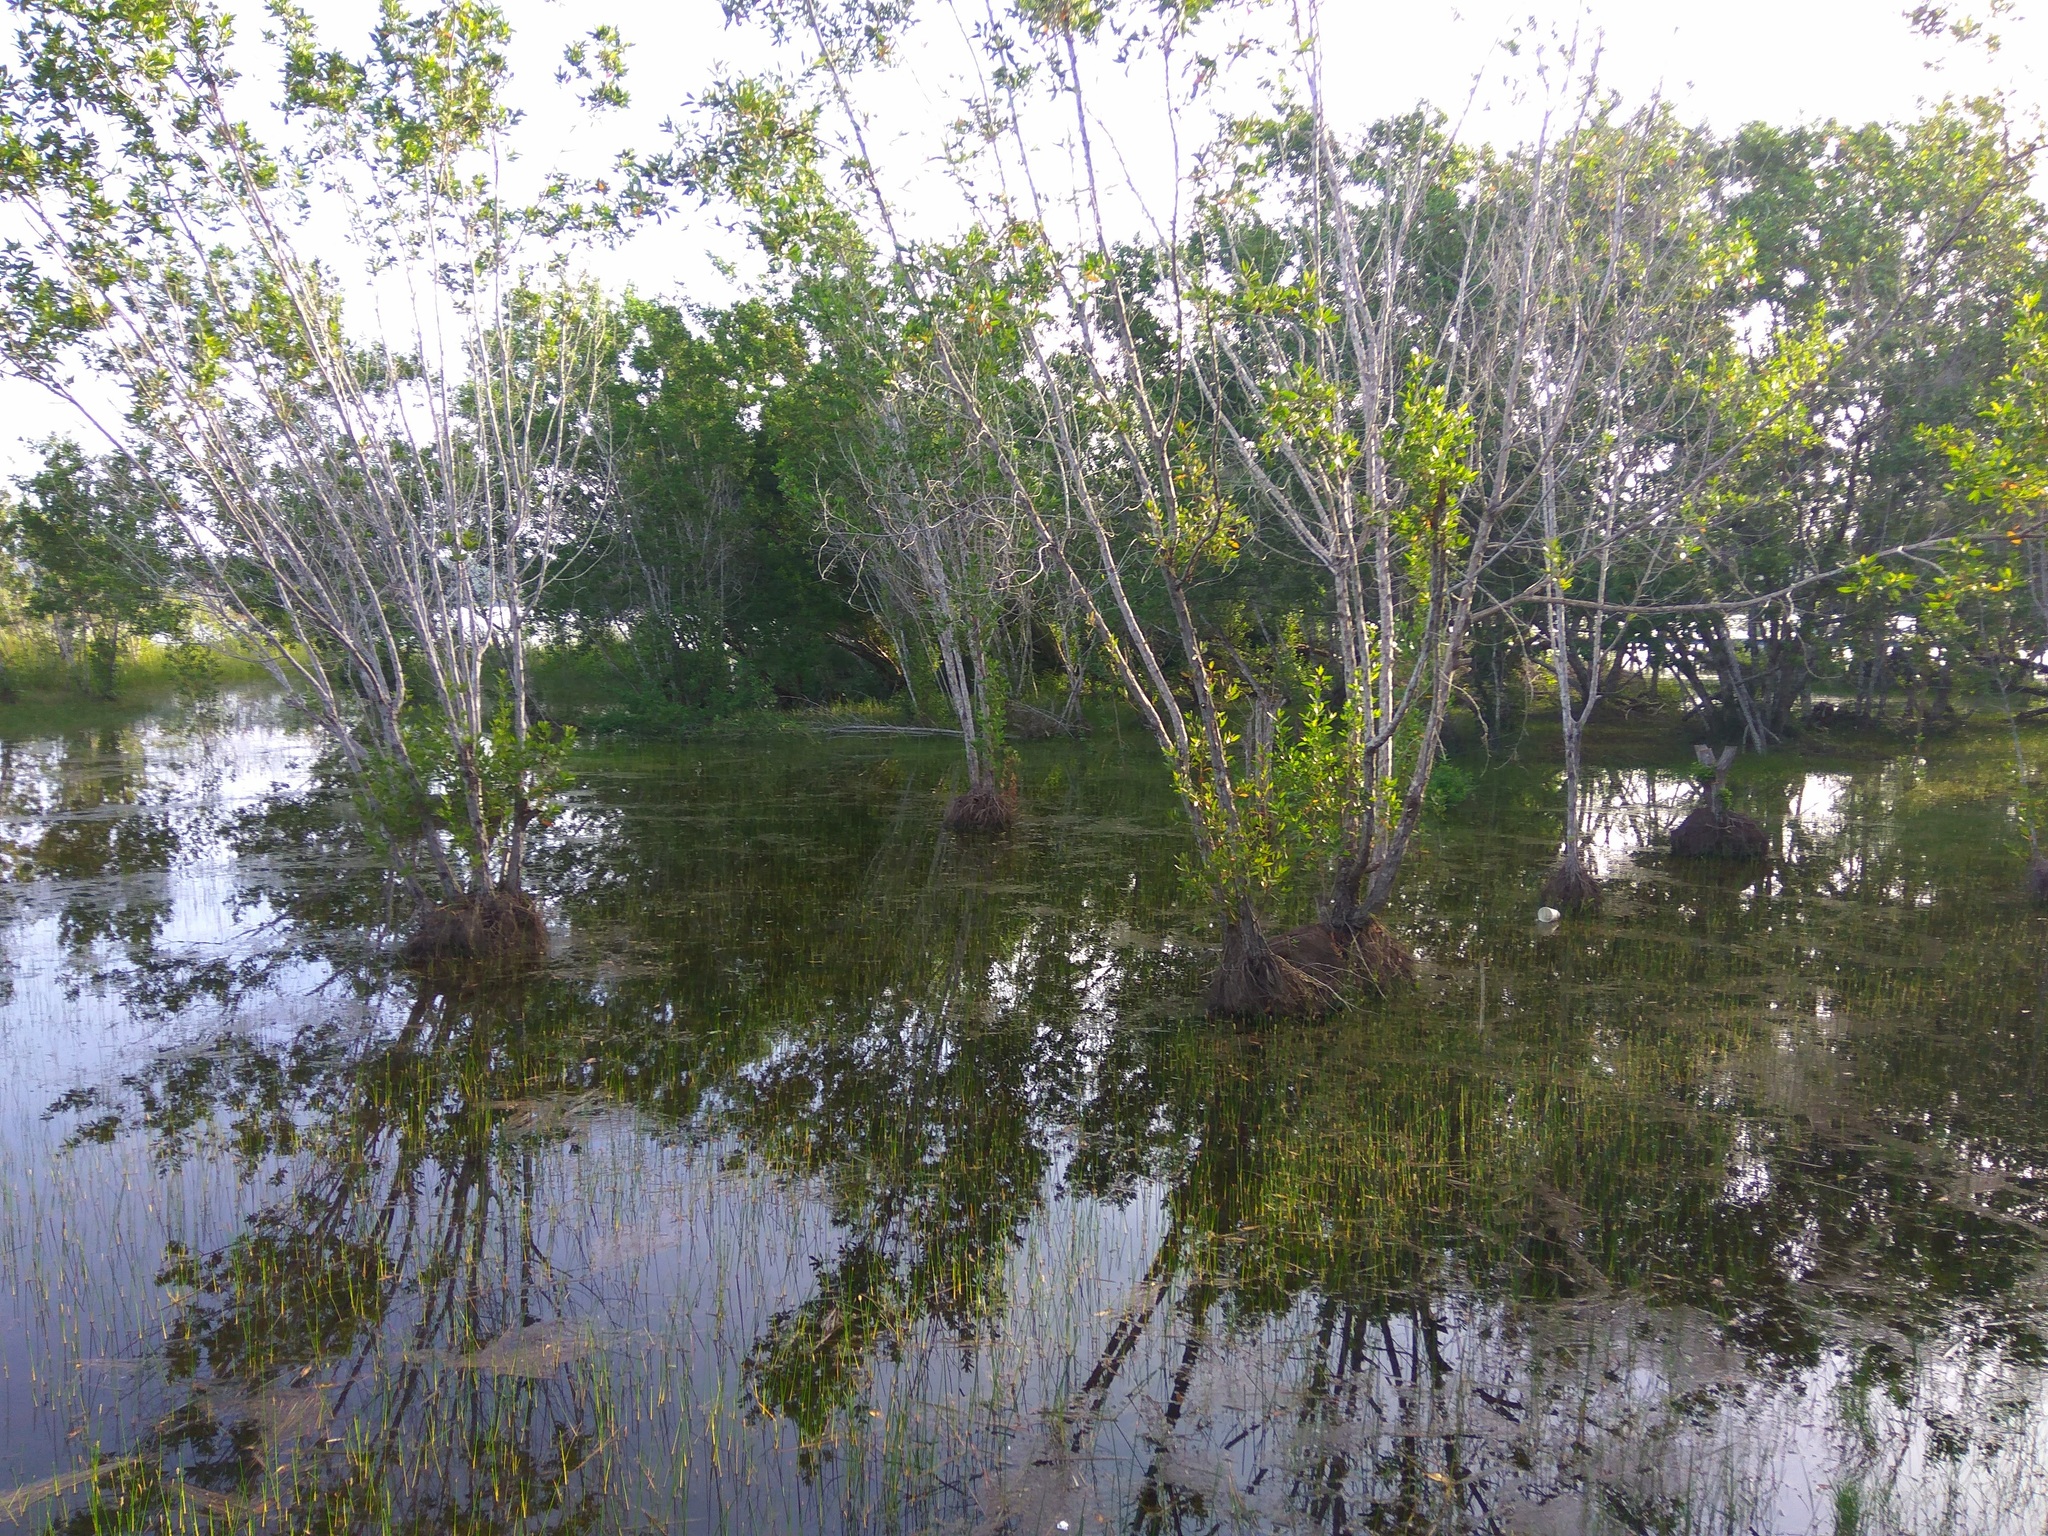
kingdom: Plantae
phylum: Tracheophyta
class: Magnoliopsida
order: Myrtales
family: Combretaceae
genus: Conocarpus
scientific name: Conocarpus erectus
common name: Button mangrove
